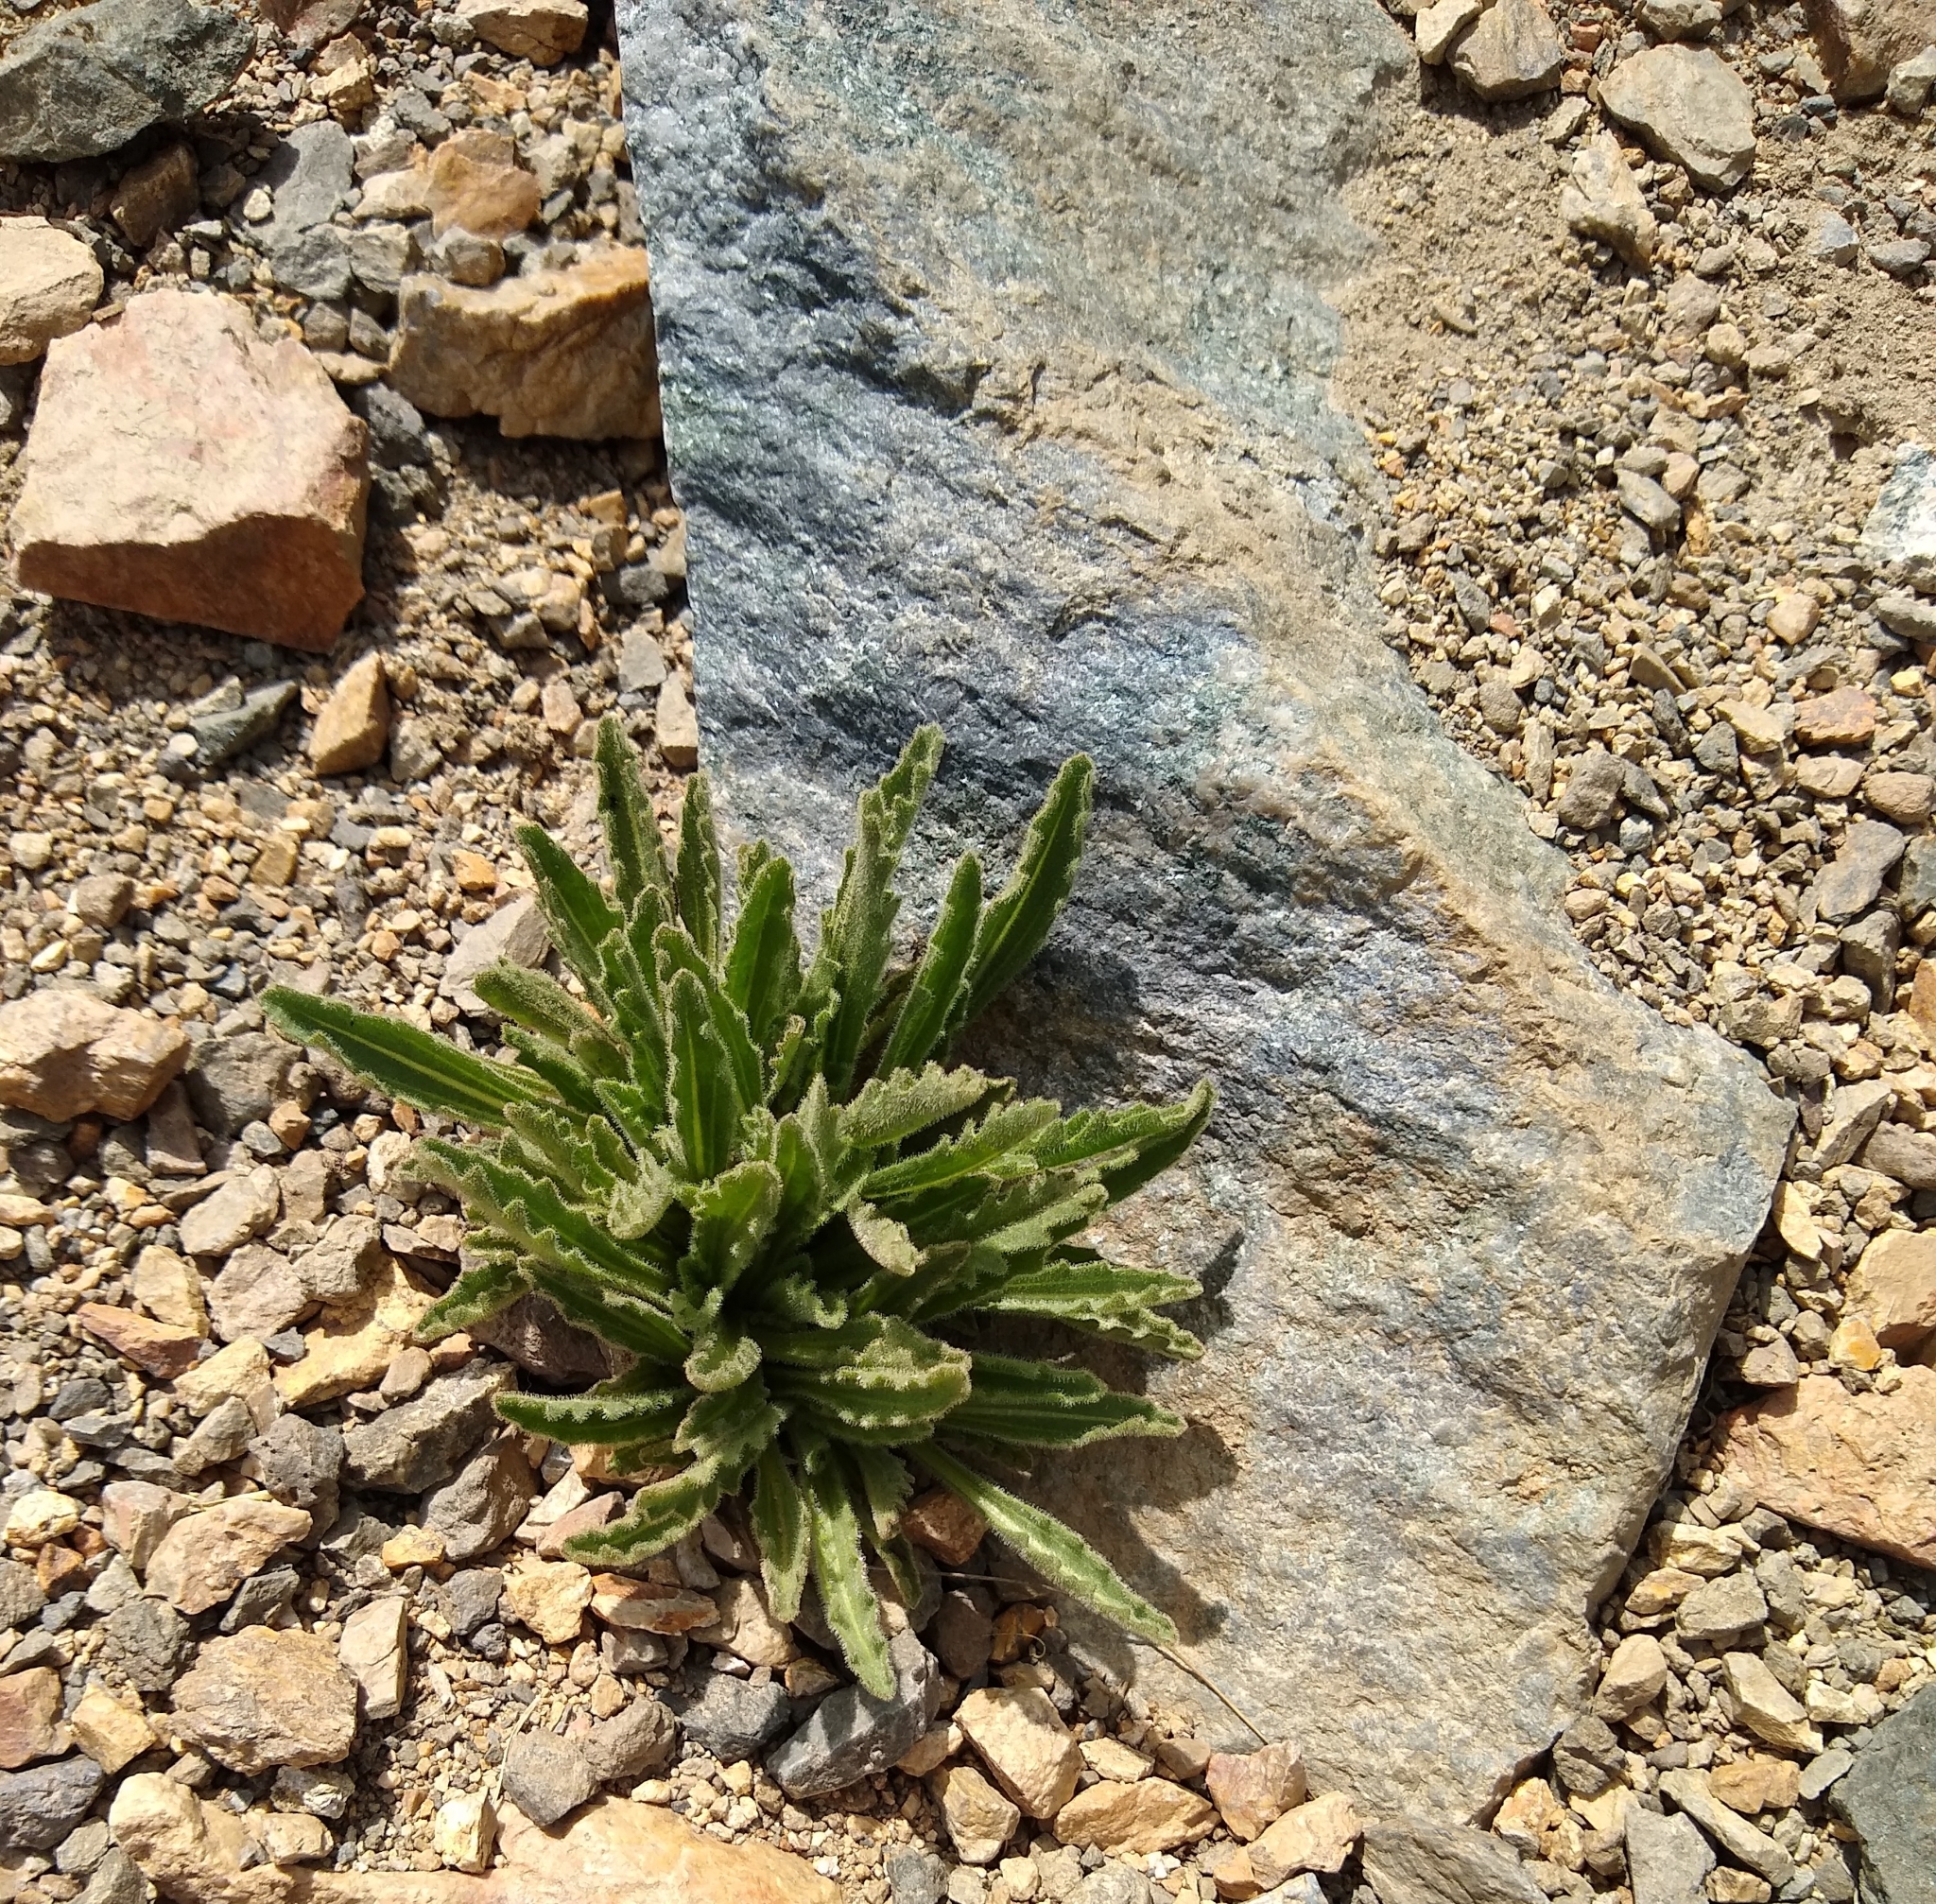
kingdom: Plantae
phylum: Tracheophyta
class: Magnoliopsida
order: Asterales
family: Asteraceae
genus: Hulsea
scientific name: Hulsea algida
